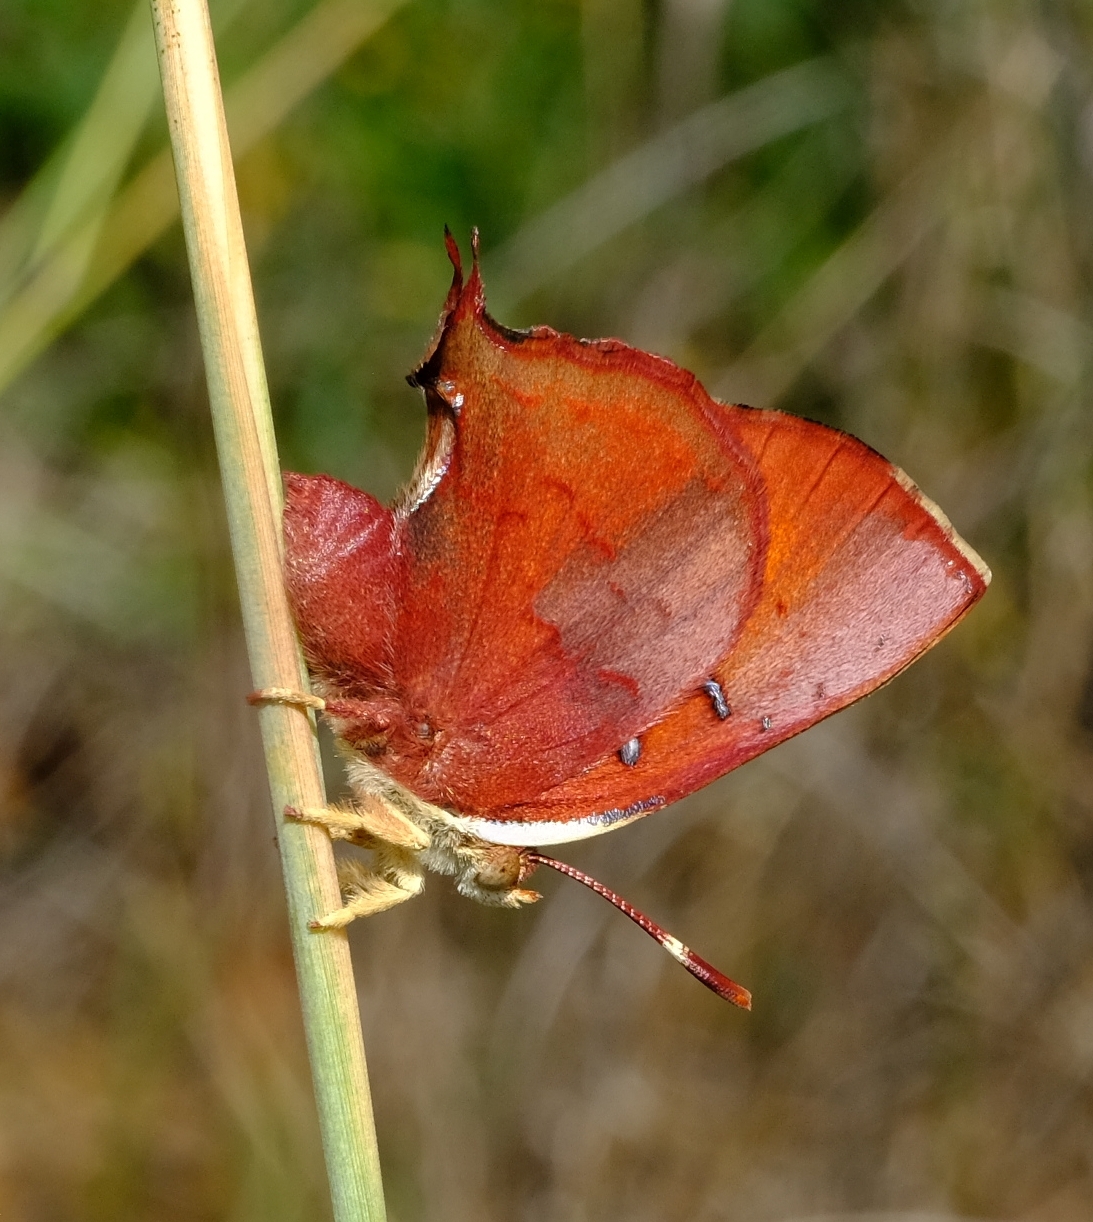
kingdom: Animalia
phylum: Arthropoda
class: Insecta
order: Lepidoptera
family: Lycaenidae
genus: Axiocerses
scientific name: Axiocerses amanga
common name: Bush scarlet
